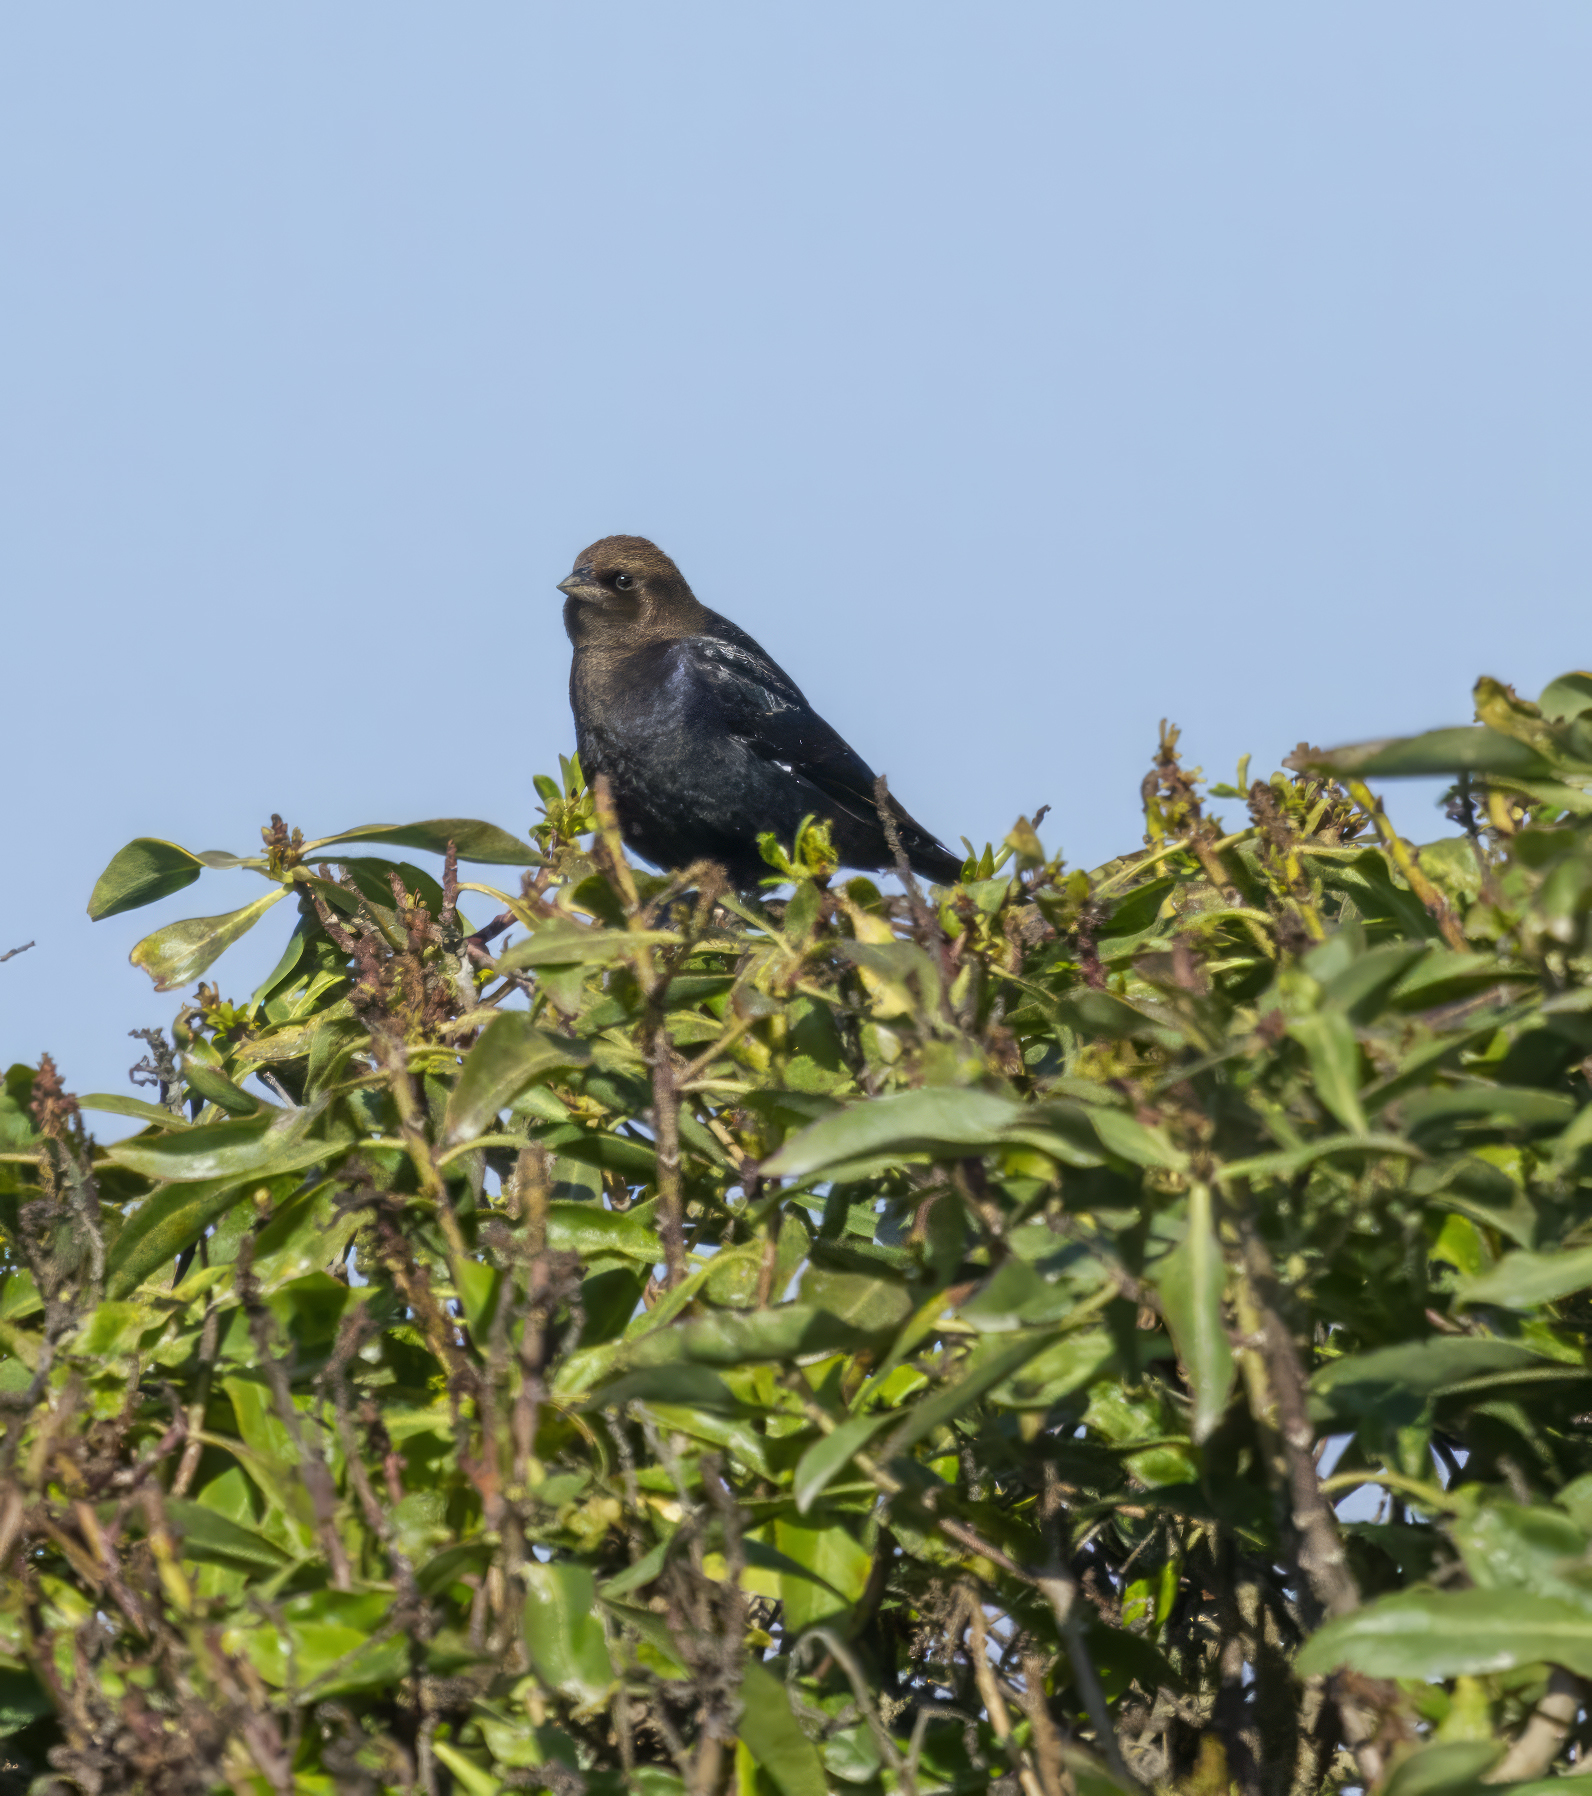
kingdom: Animalia
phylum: Chordata
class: Aves
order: Passeriformes
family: Icteridae
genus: Molothrus
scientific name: Molothrus ater
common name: Brown-headed cowbird
